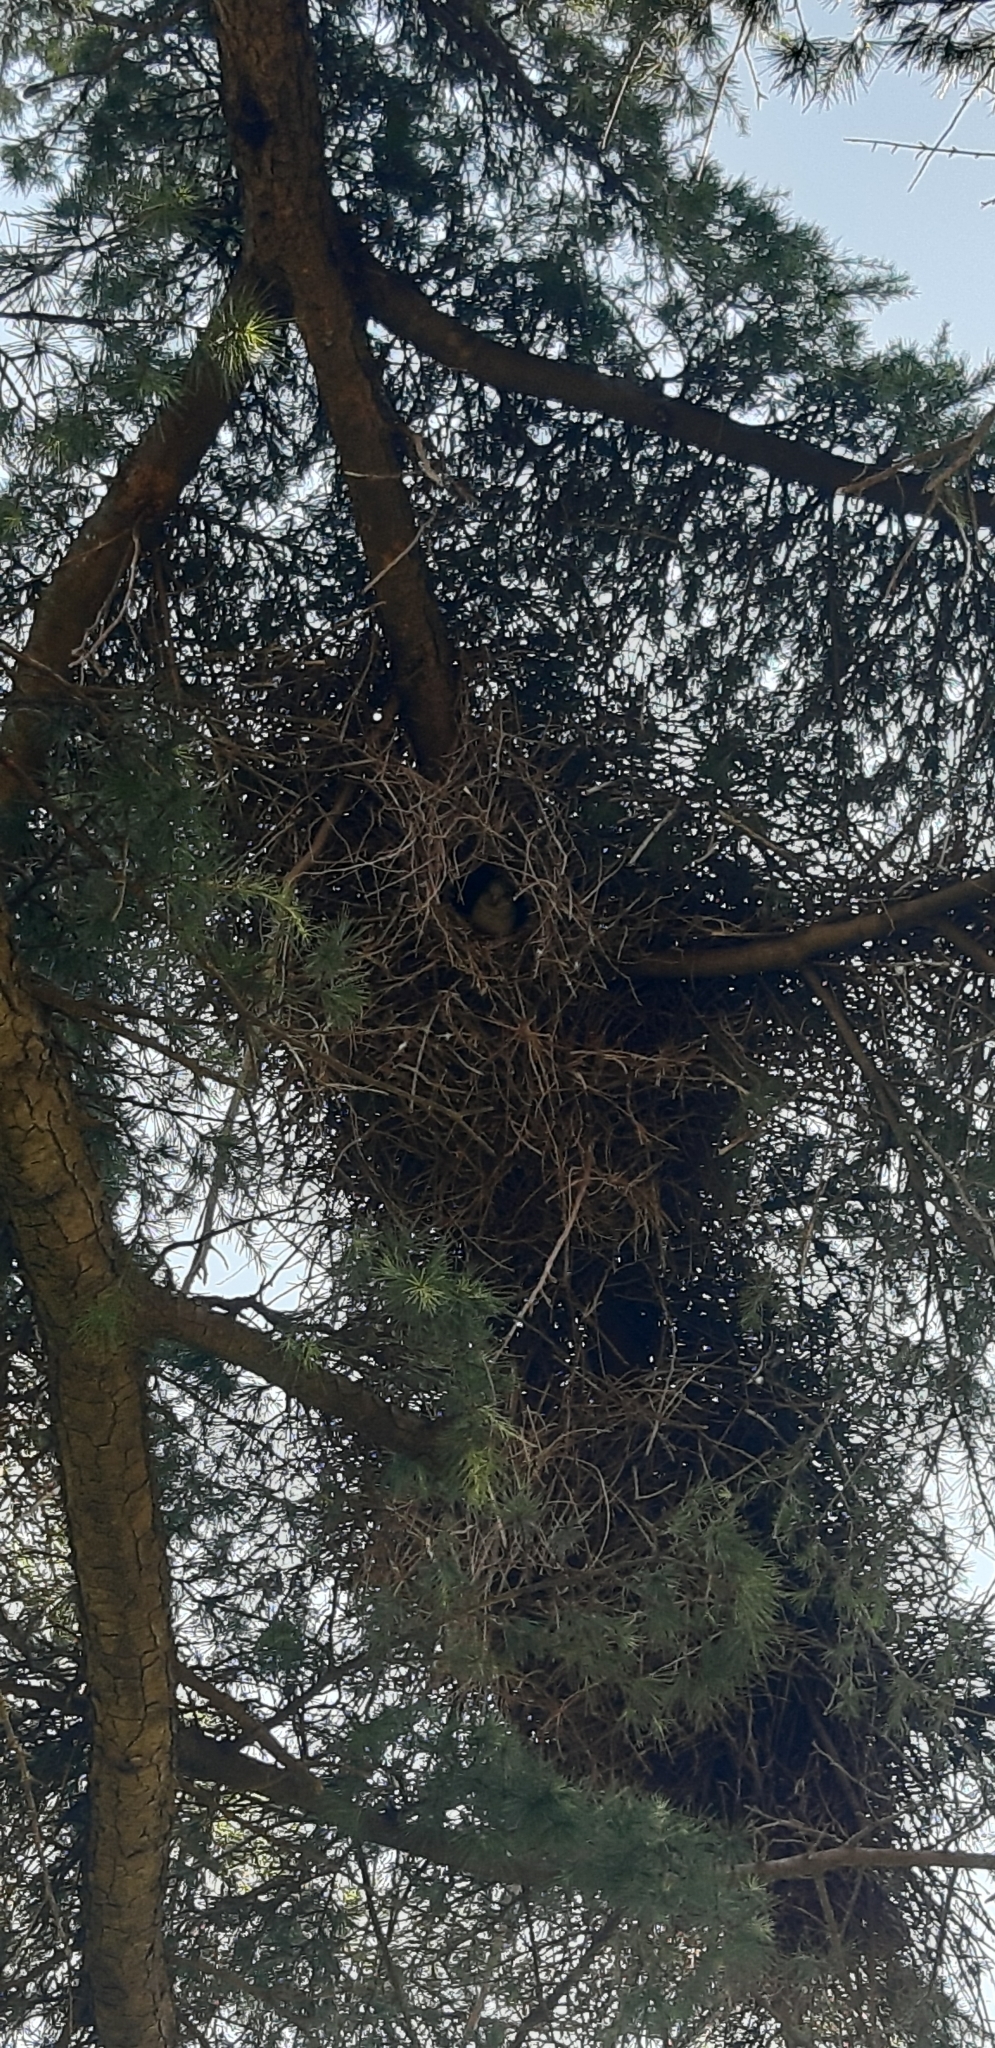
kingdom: Animalia
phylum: Chordata
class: Aves
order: Psittaciformes
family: Psittacidae
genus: Myiopsitta
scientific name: Myiopsitta monachus
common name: Monk parakeet
